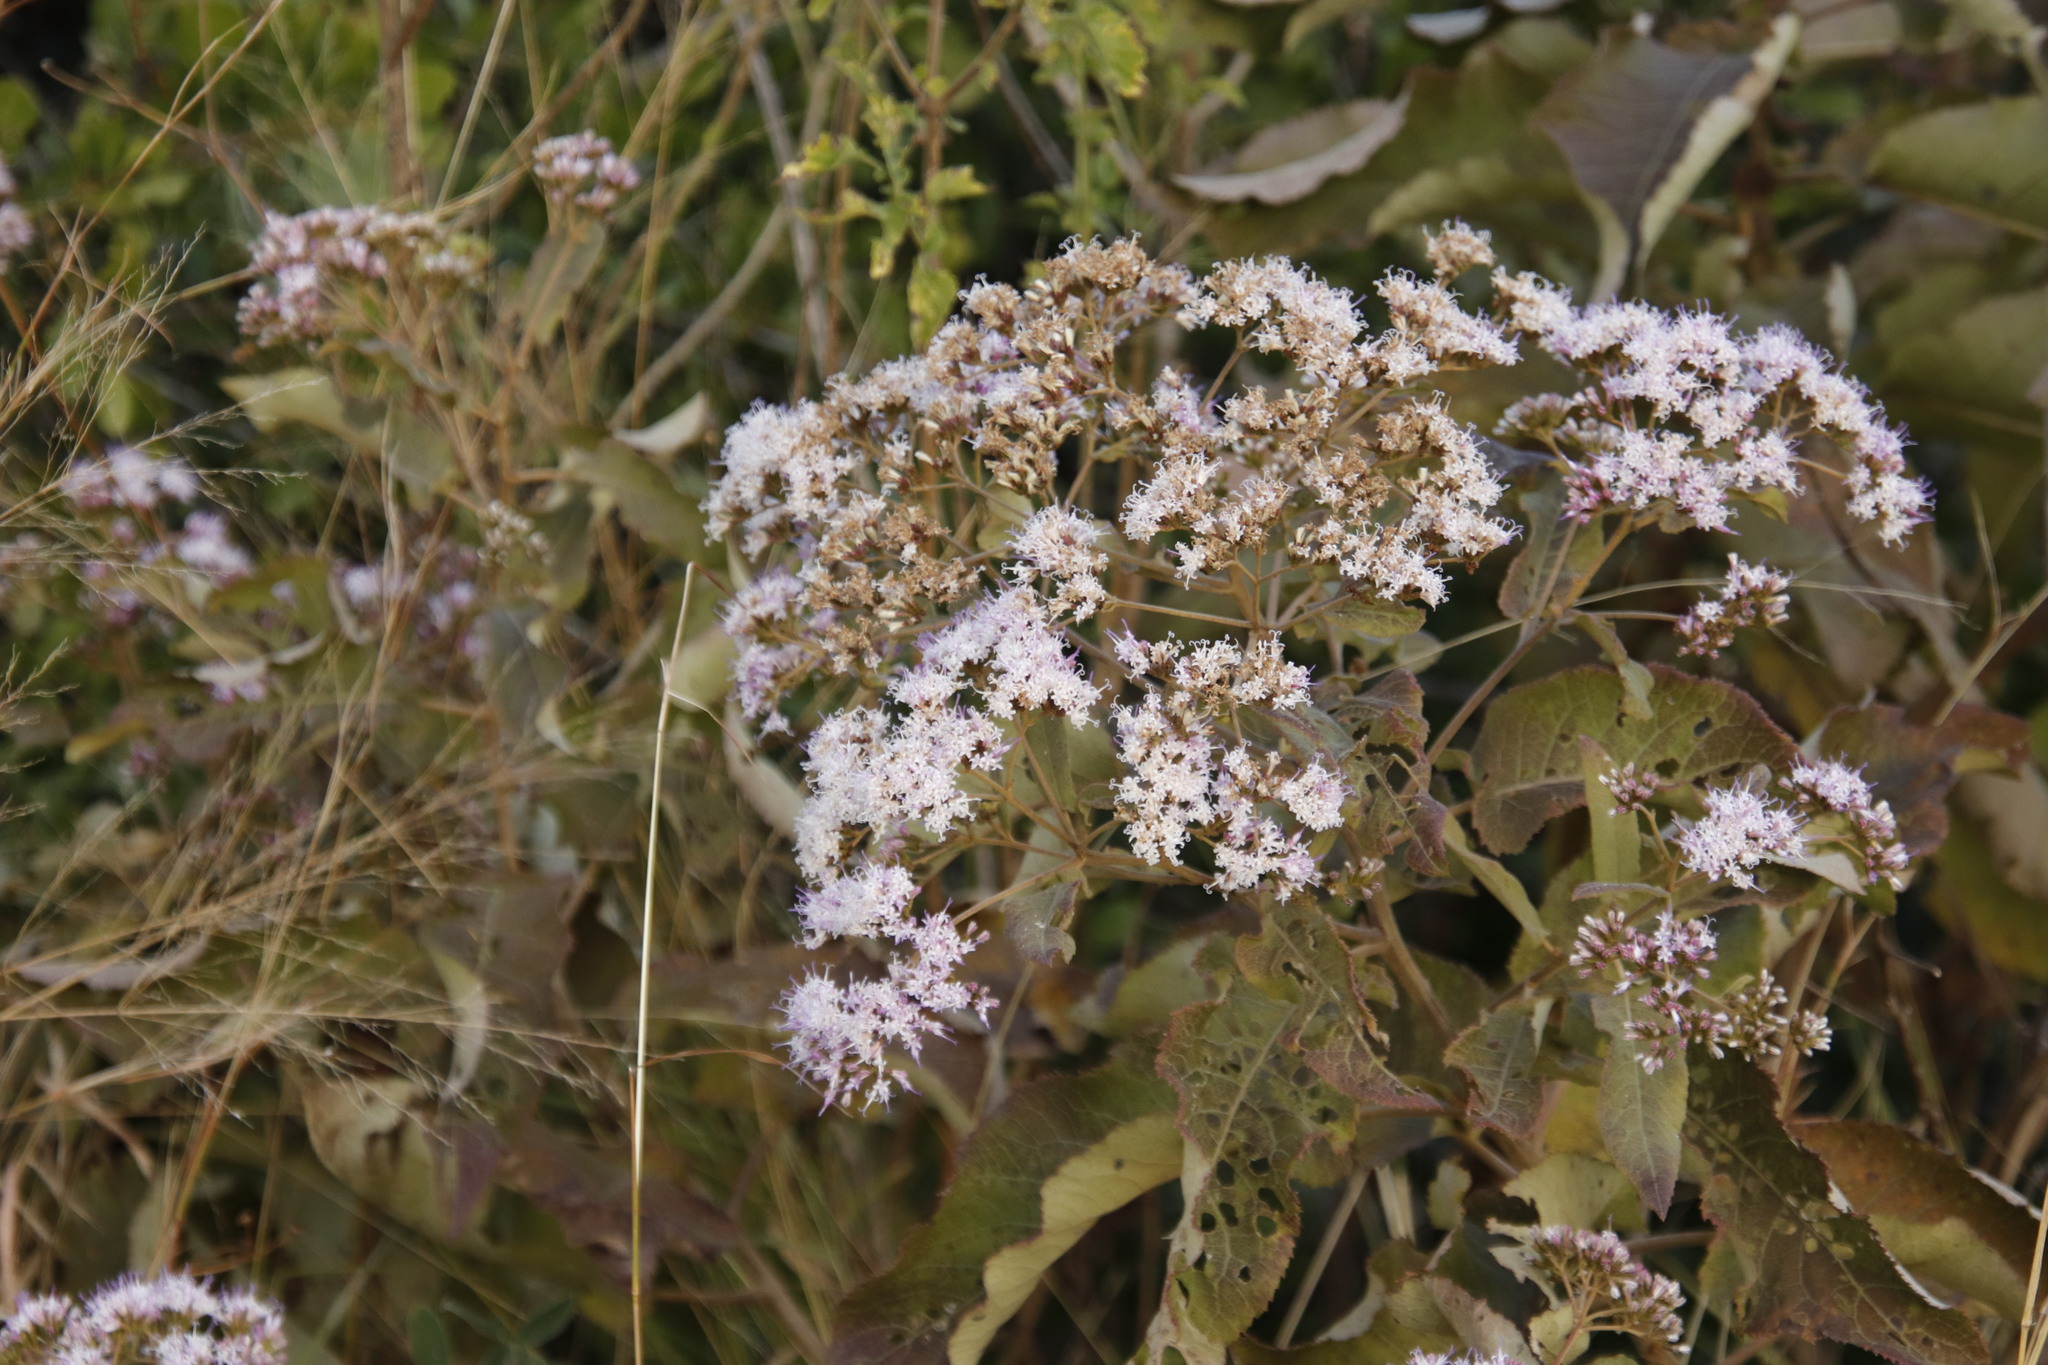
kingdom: Plantae
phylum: Tracheophyta
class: Magnoliopsida
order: Asterales
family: Asteraceae
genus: Gymnanthemum
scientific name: Gymnanthemum myrianthum
